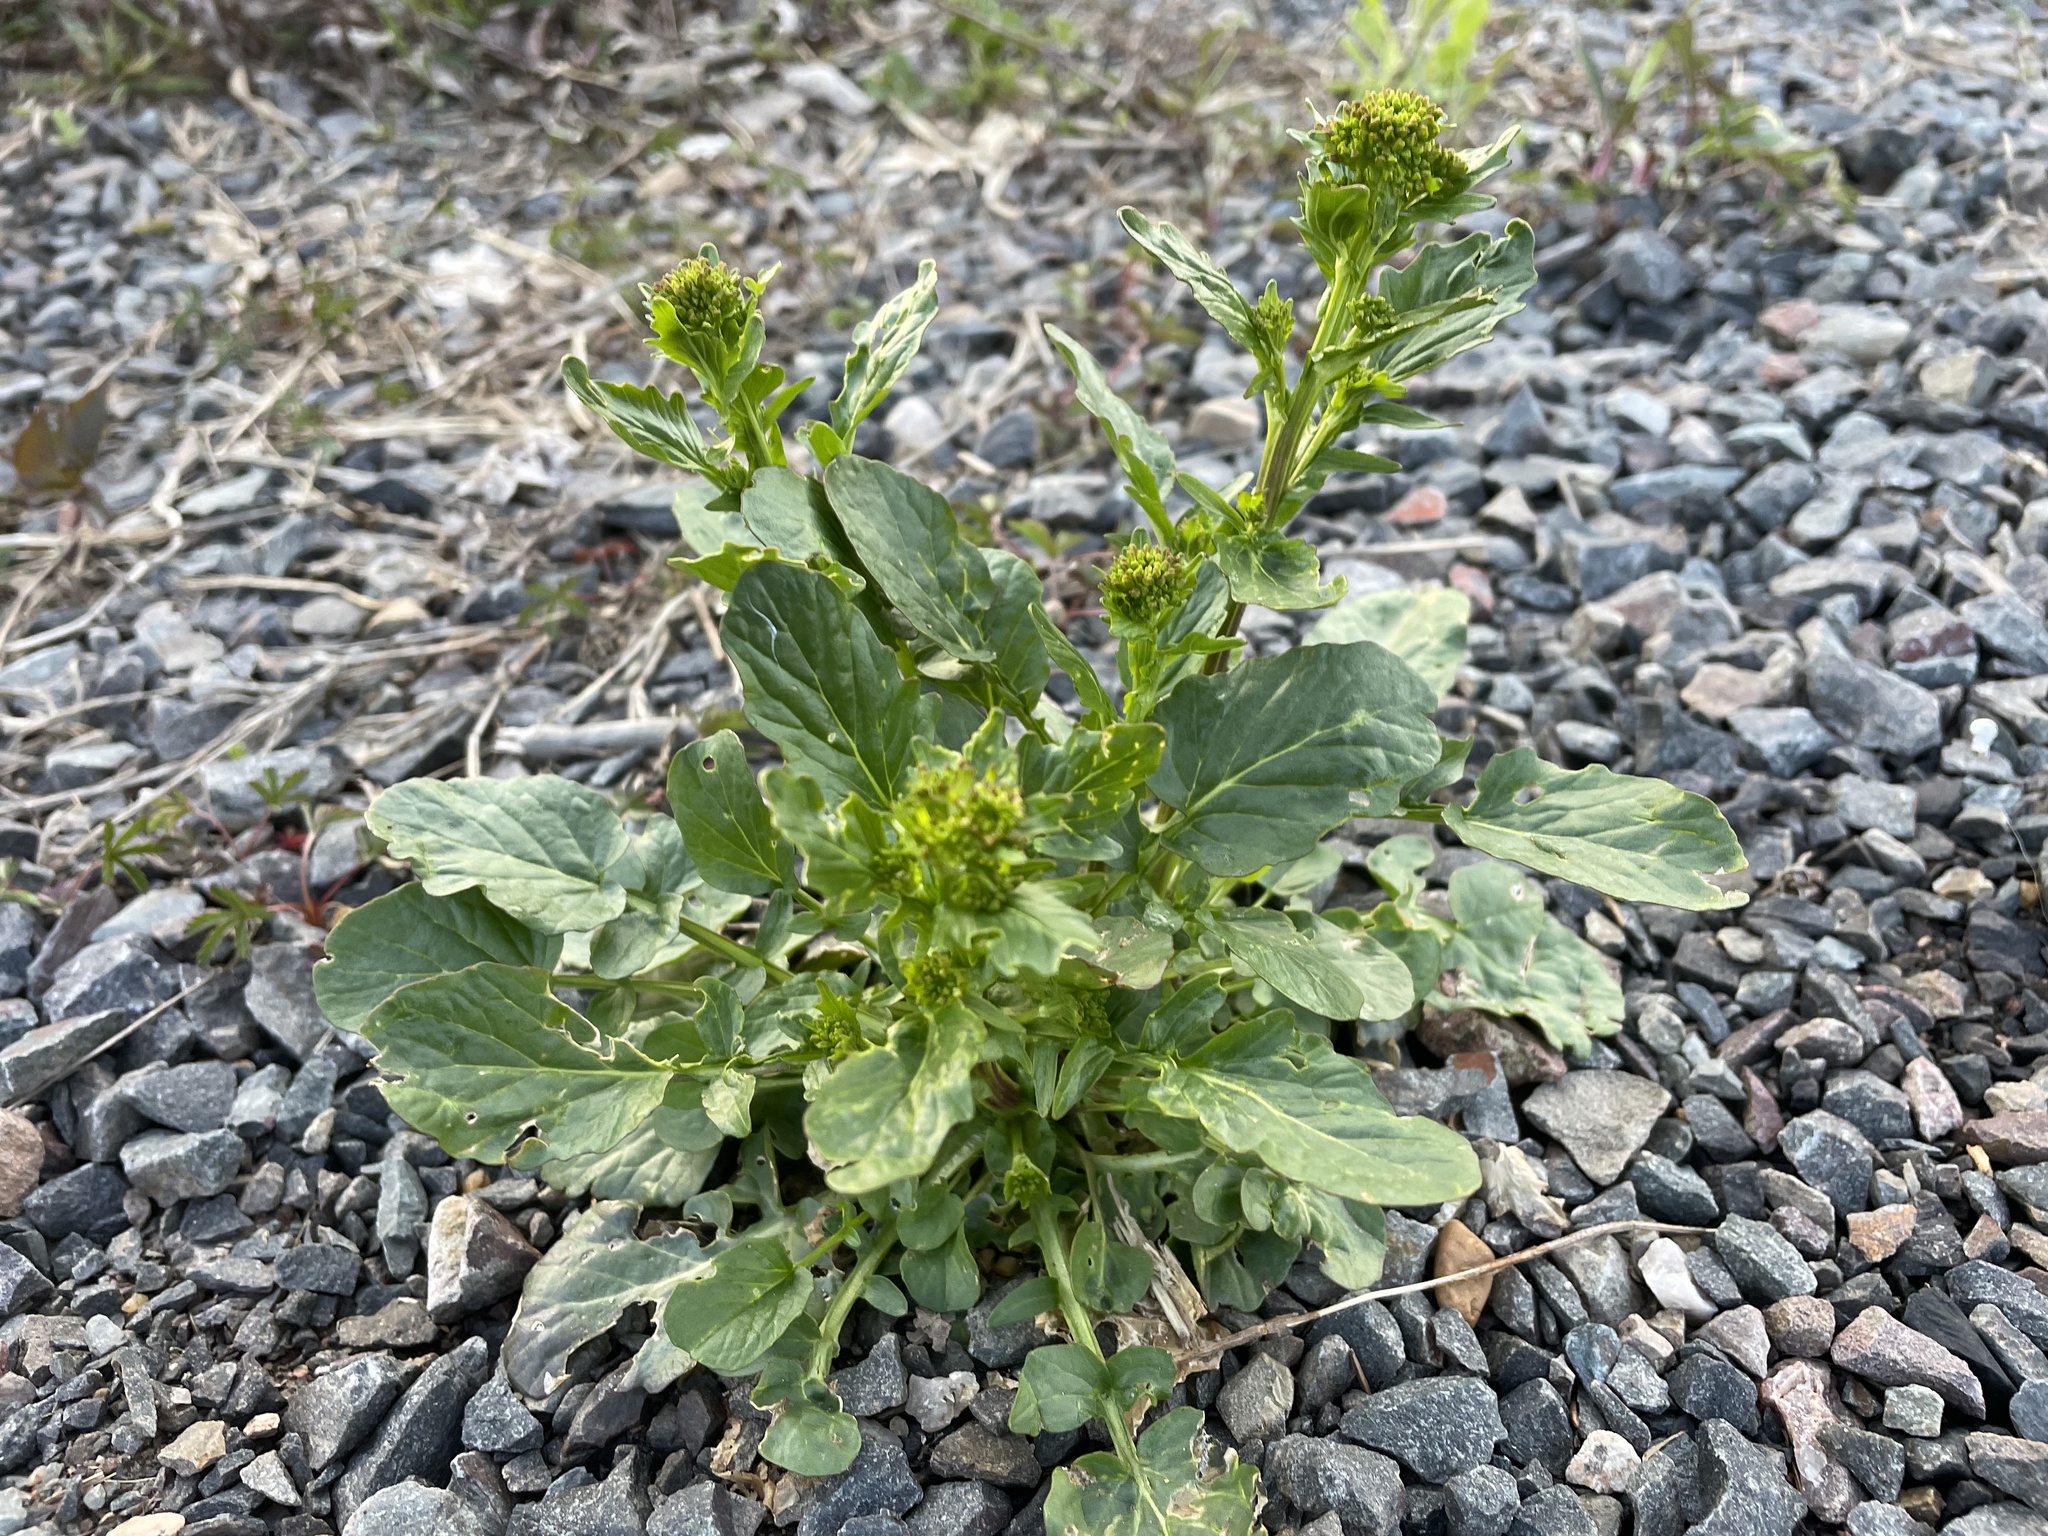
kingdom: Plantae
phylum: Tracheophyta
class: Magnoliopsida
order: Brassicales
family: Brassicaceae
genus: Barbarea
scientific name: Barbarea vulgaris
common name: Cressy-greens
